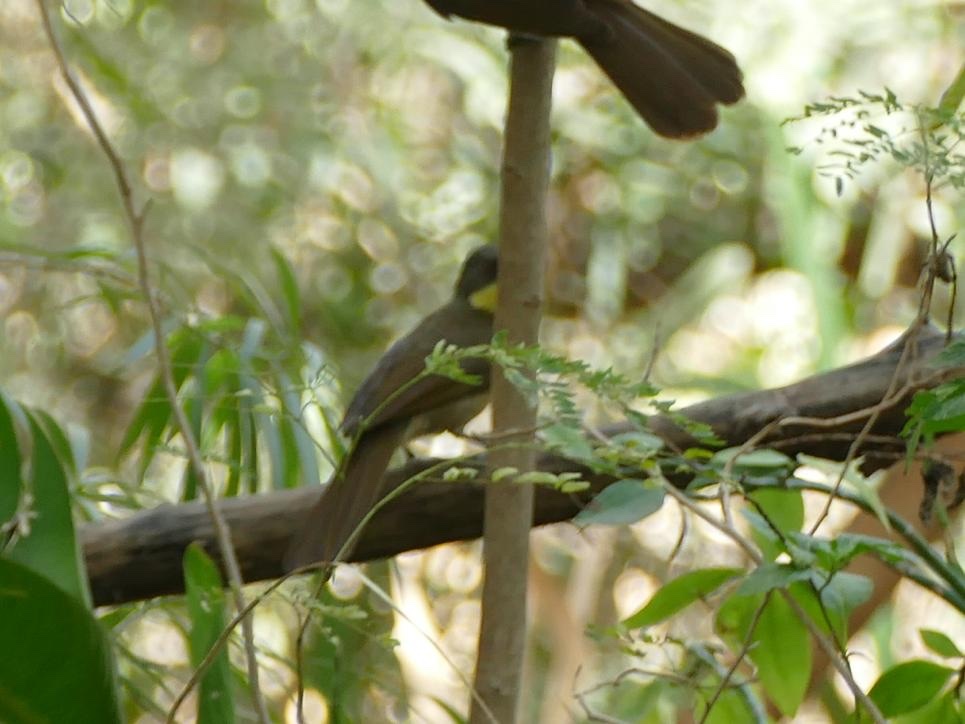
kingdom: Animalia
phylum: Chordata
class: Aves
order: Passeriformes
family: Pycnonotidae
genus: Atimastillas
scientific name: Atimastillas flavicollis
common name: Yellow-throated leaflove
